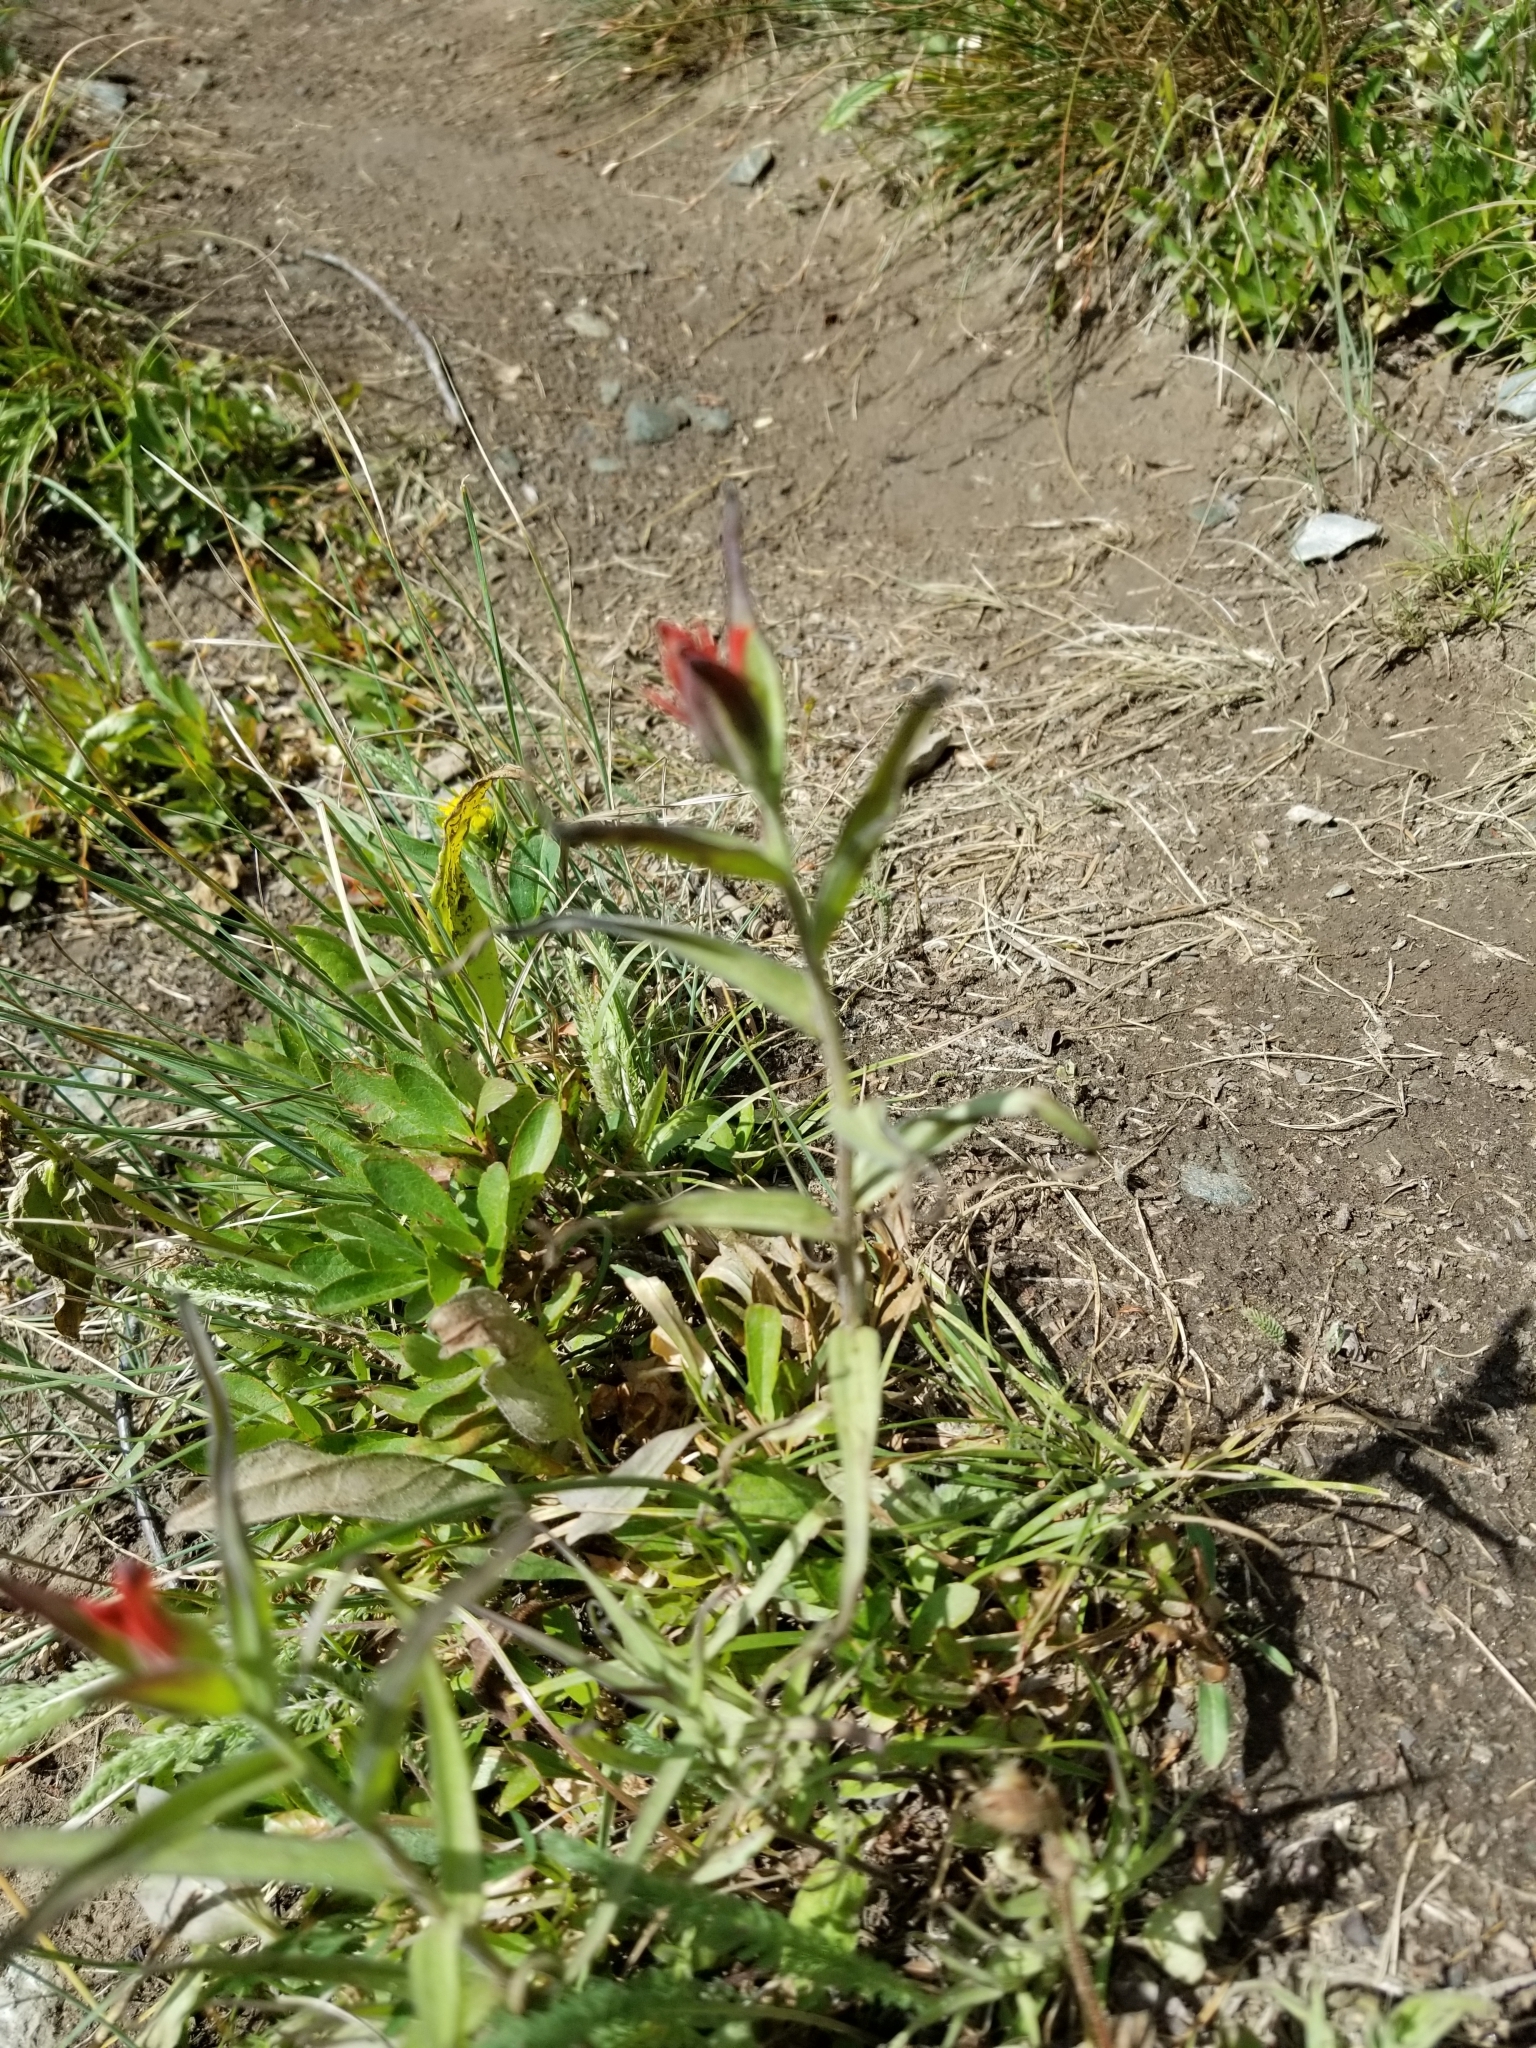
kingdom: Plantae
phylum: Tracheophyta
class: Magnoliopsida
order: Lamiales
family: Orobanchaceae
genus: Castilleja
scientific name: Castilleja miniata
